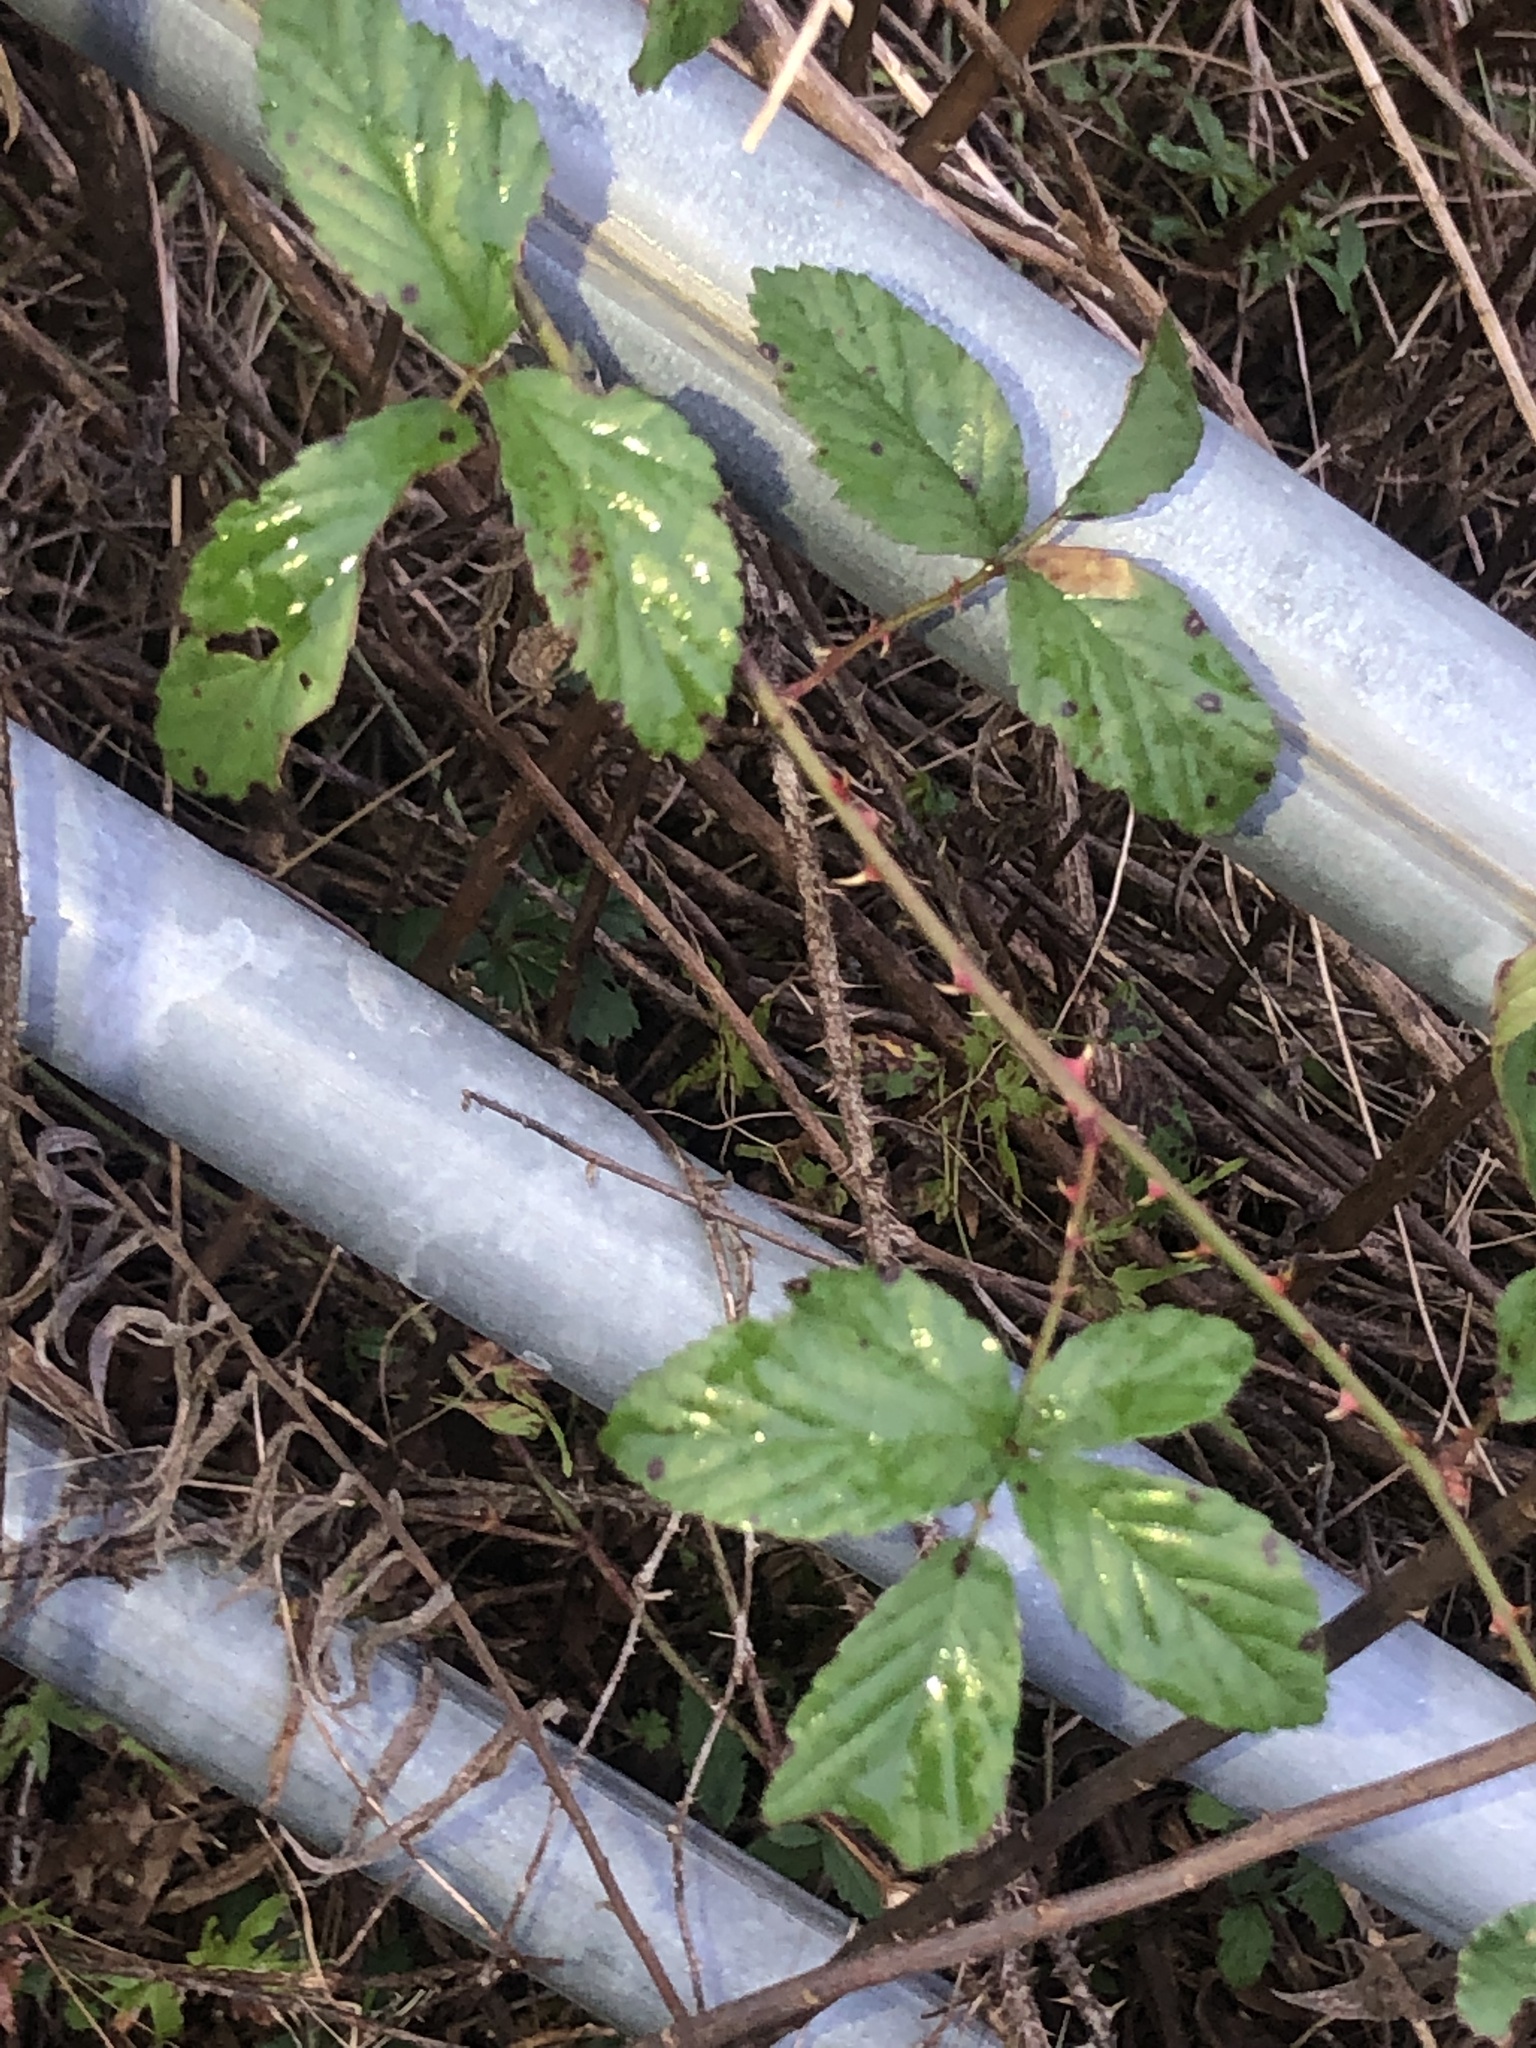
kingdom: Plantae
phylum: Tracheophyta
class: Magnoliopsida
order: Rosales
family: Rosaceae
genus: Rubus
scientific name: Rubus flagellaris
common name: American dewberry
